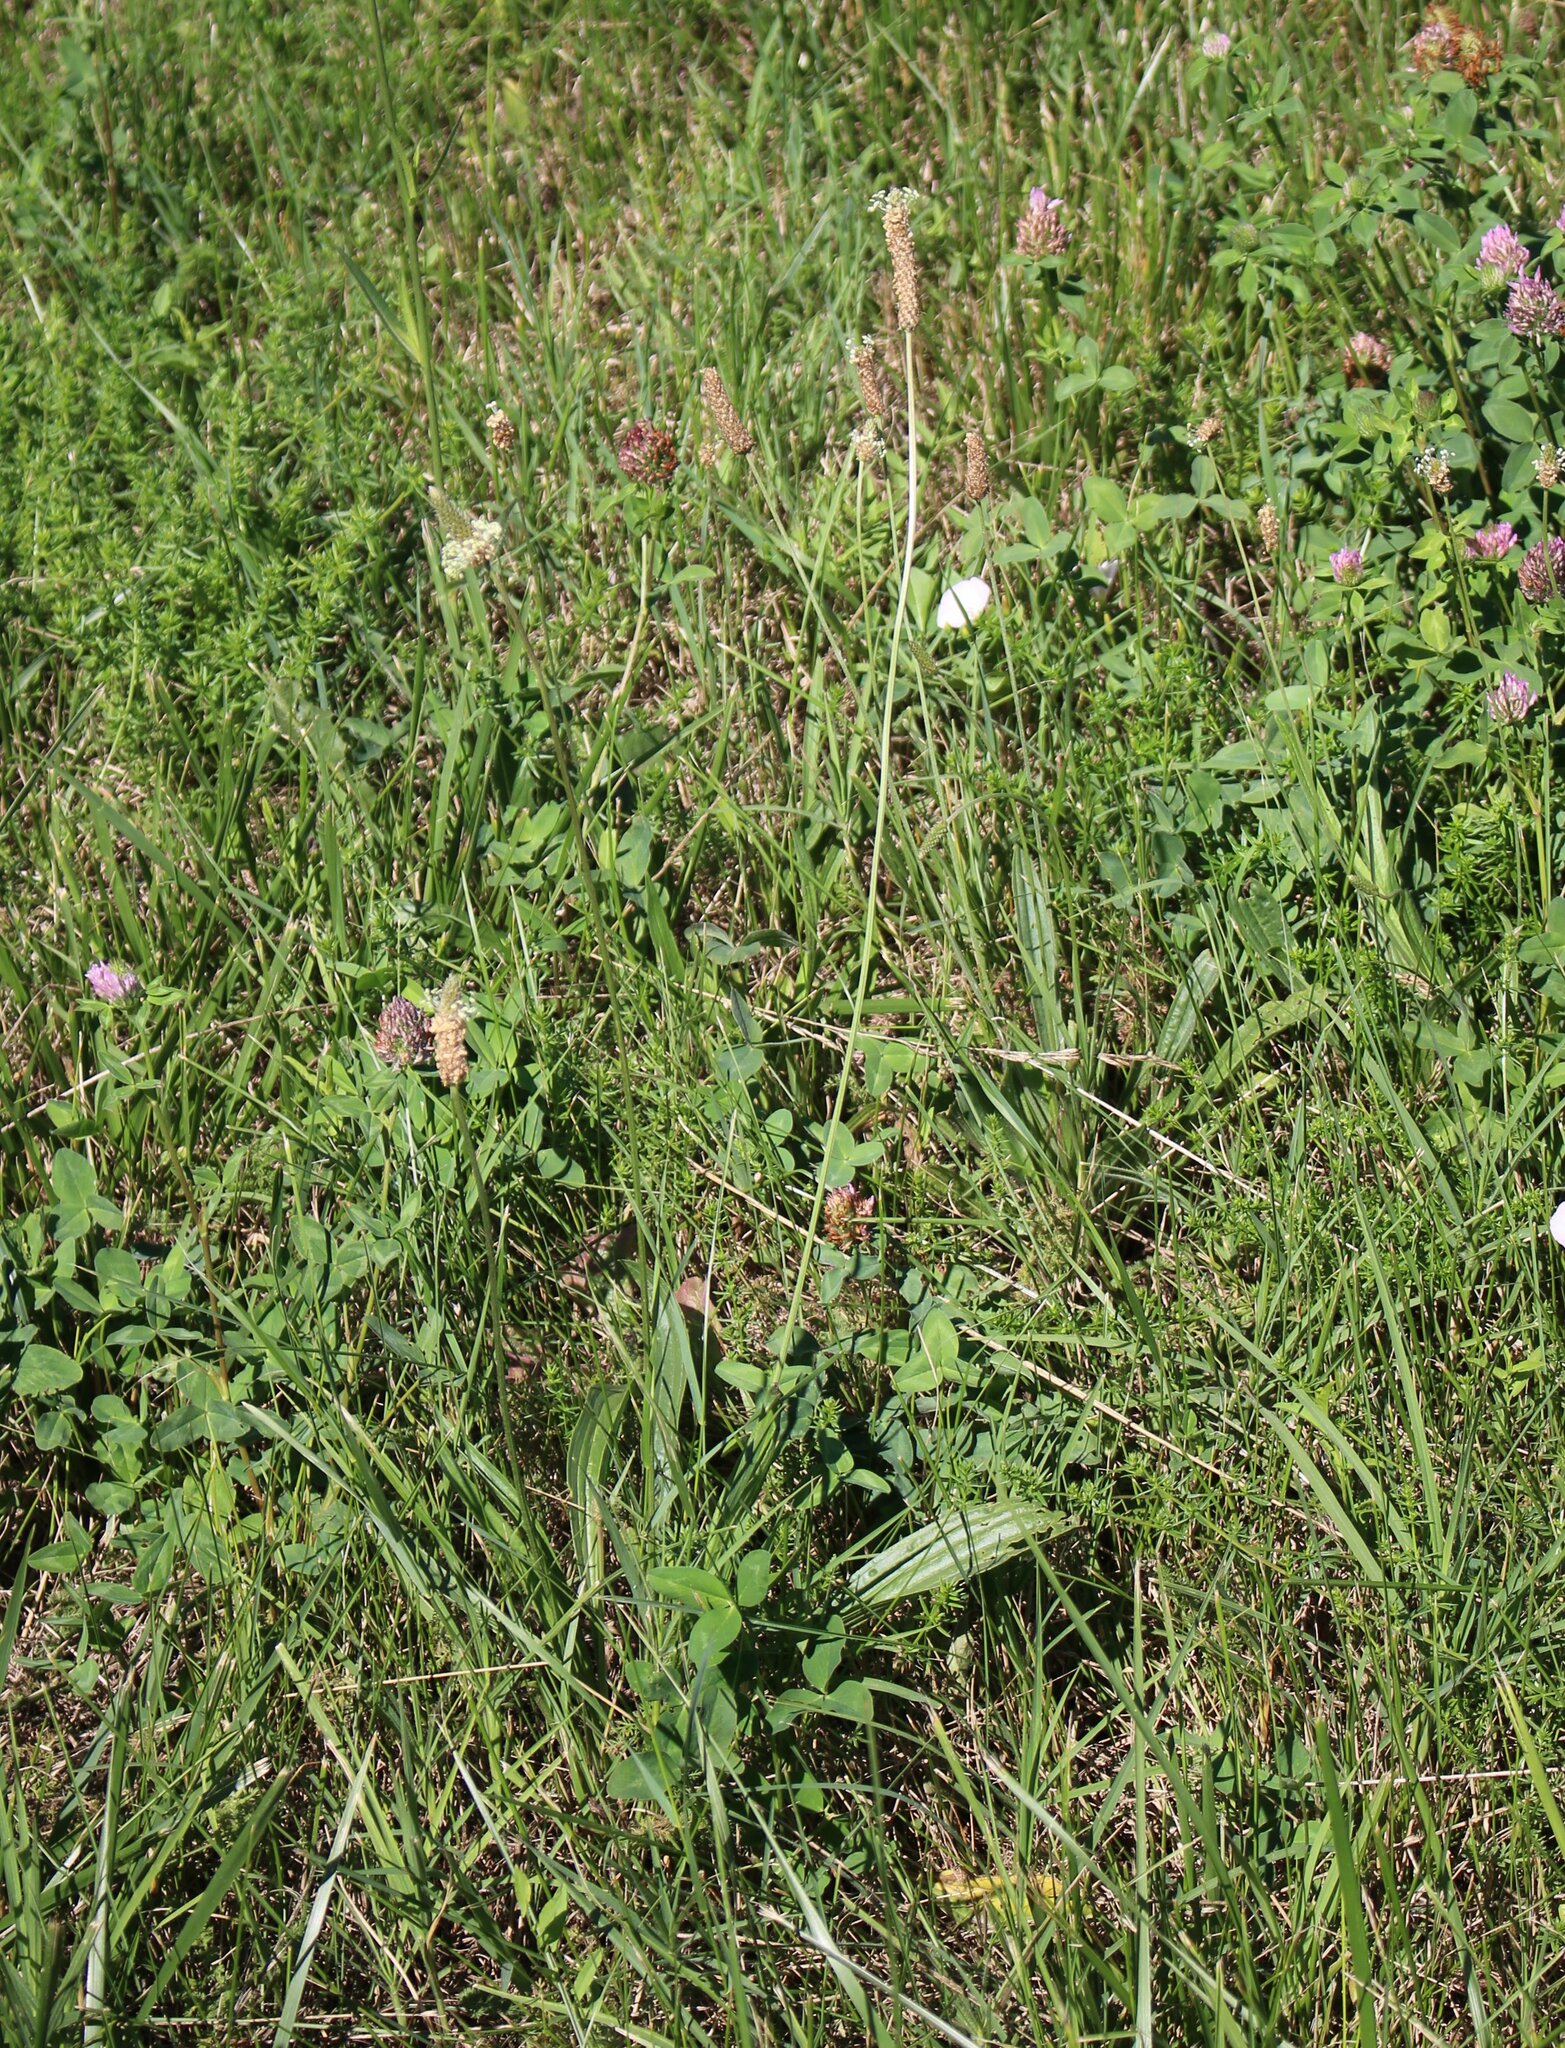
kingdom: Plantae
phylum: Tracheophyta
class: Magnoliopsida
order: Lamiales
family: Plantaginaceae
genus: Plantago
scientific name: Plantago lanceolata
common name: Ribwort plantain
